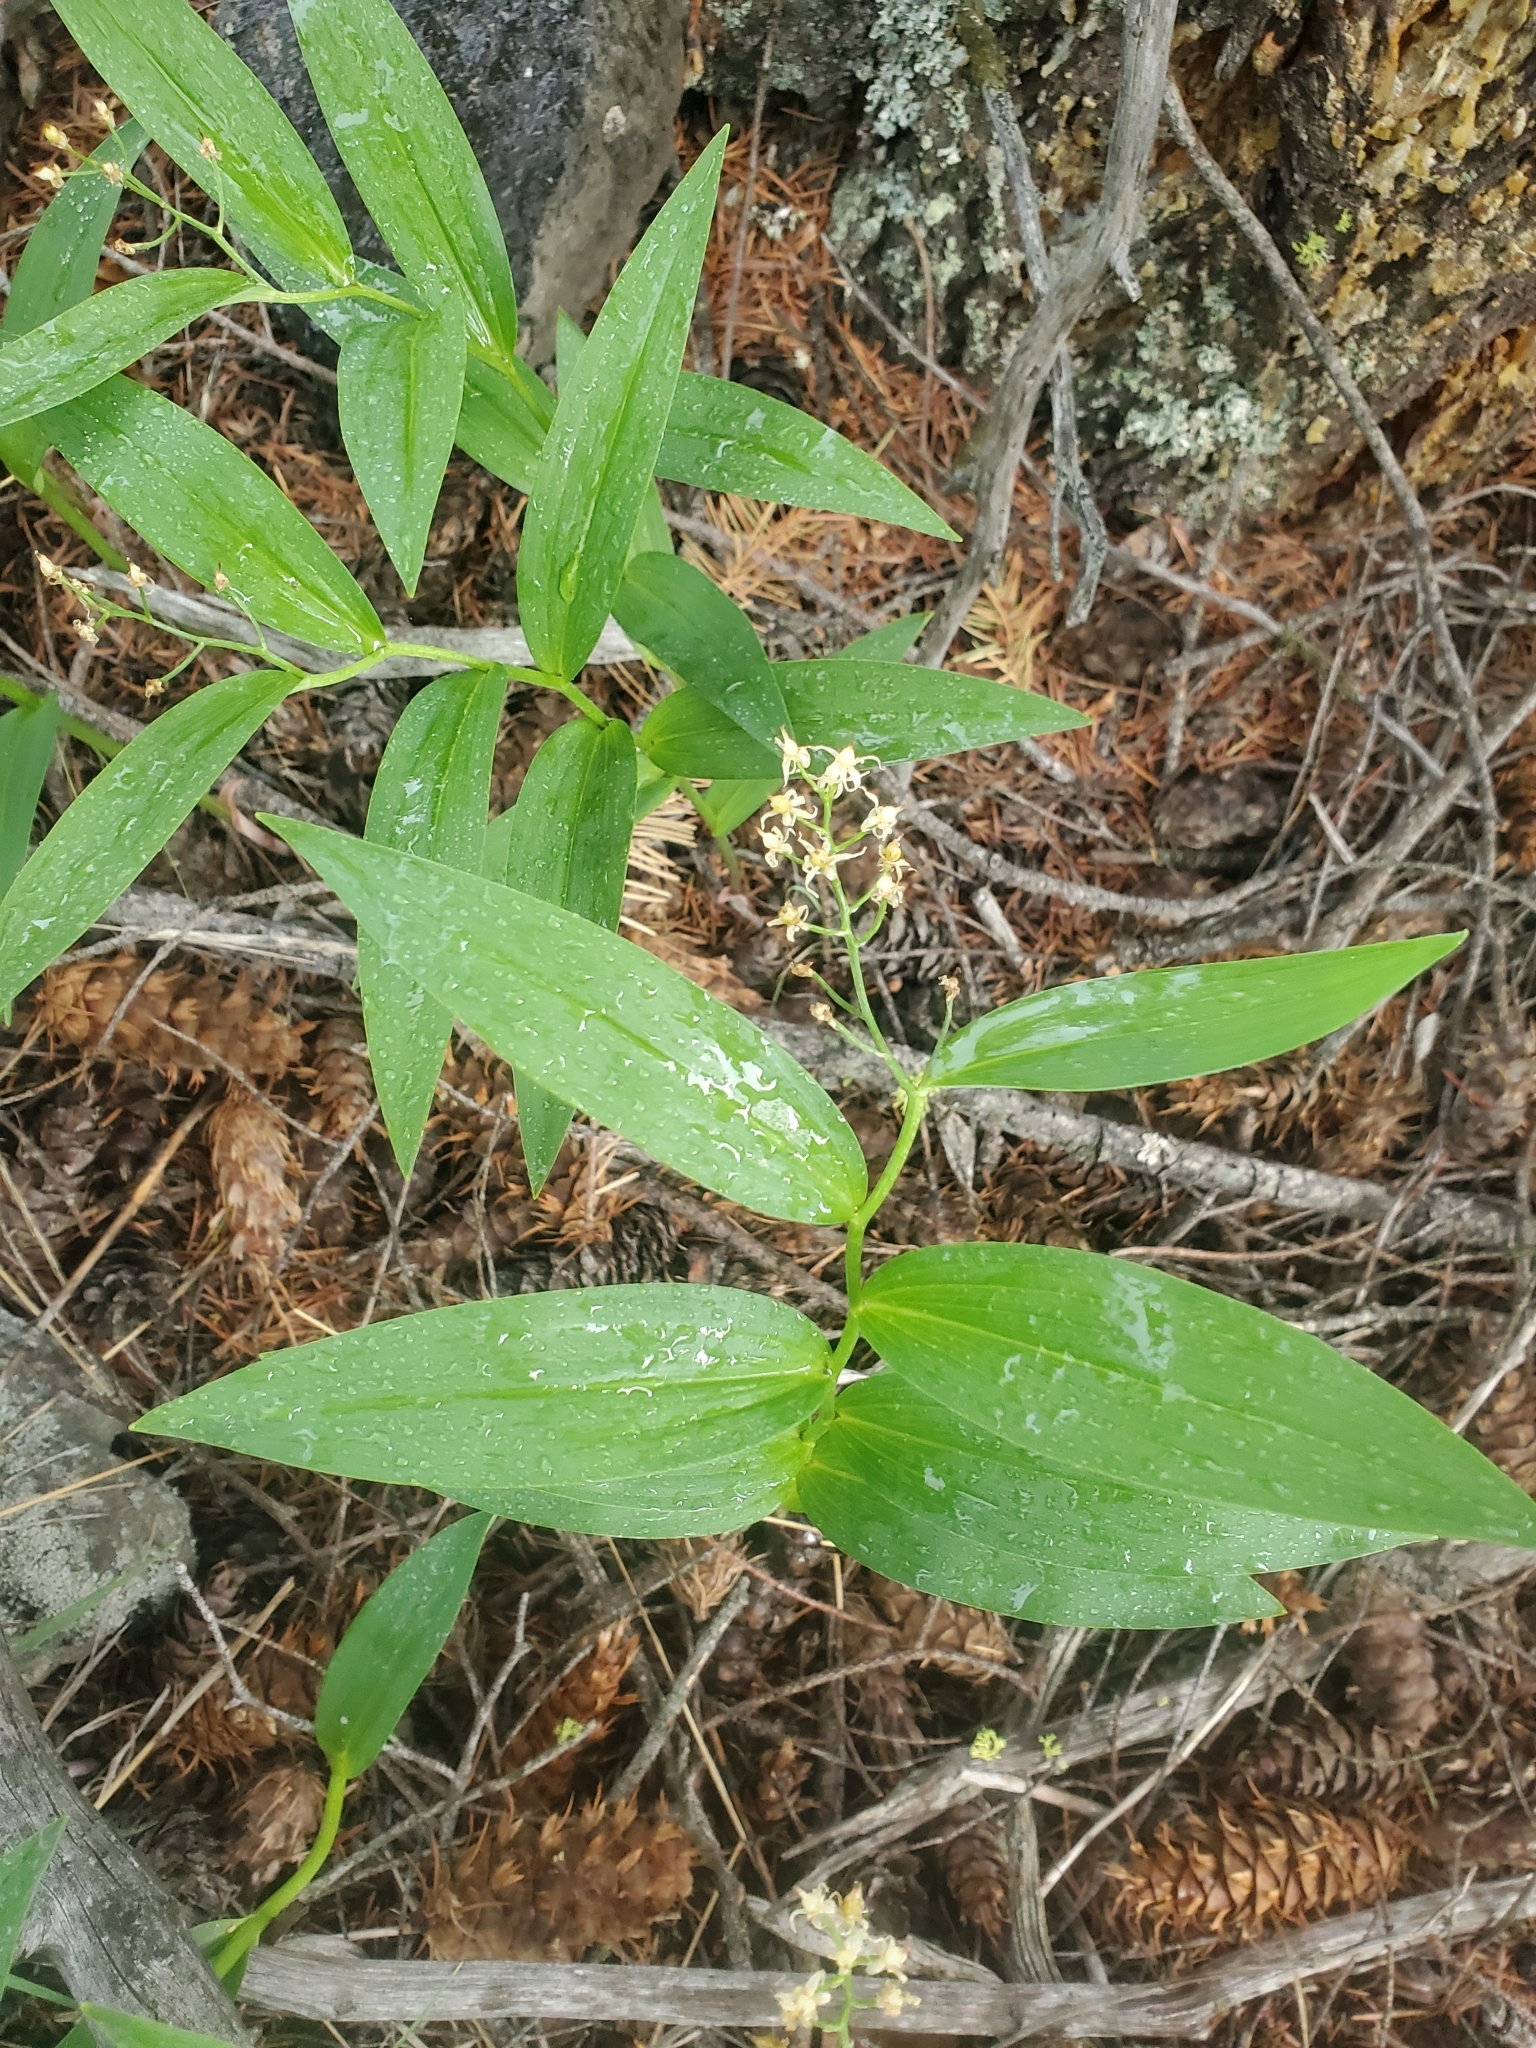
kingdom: Plantae
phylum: Tracheophyta
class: Liliopsida
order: Asparagales
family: Asparagaceae
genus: Maianthemum
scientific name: Maianthemum stellatum
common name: Little false solomon's seal
